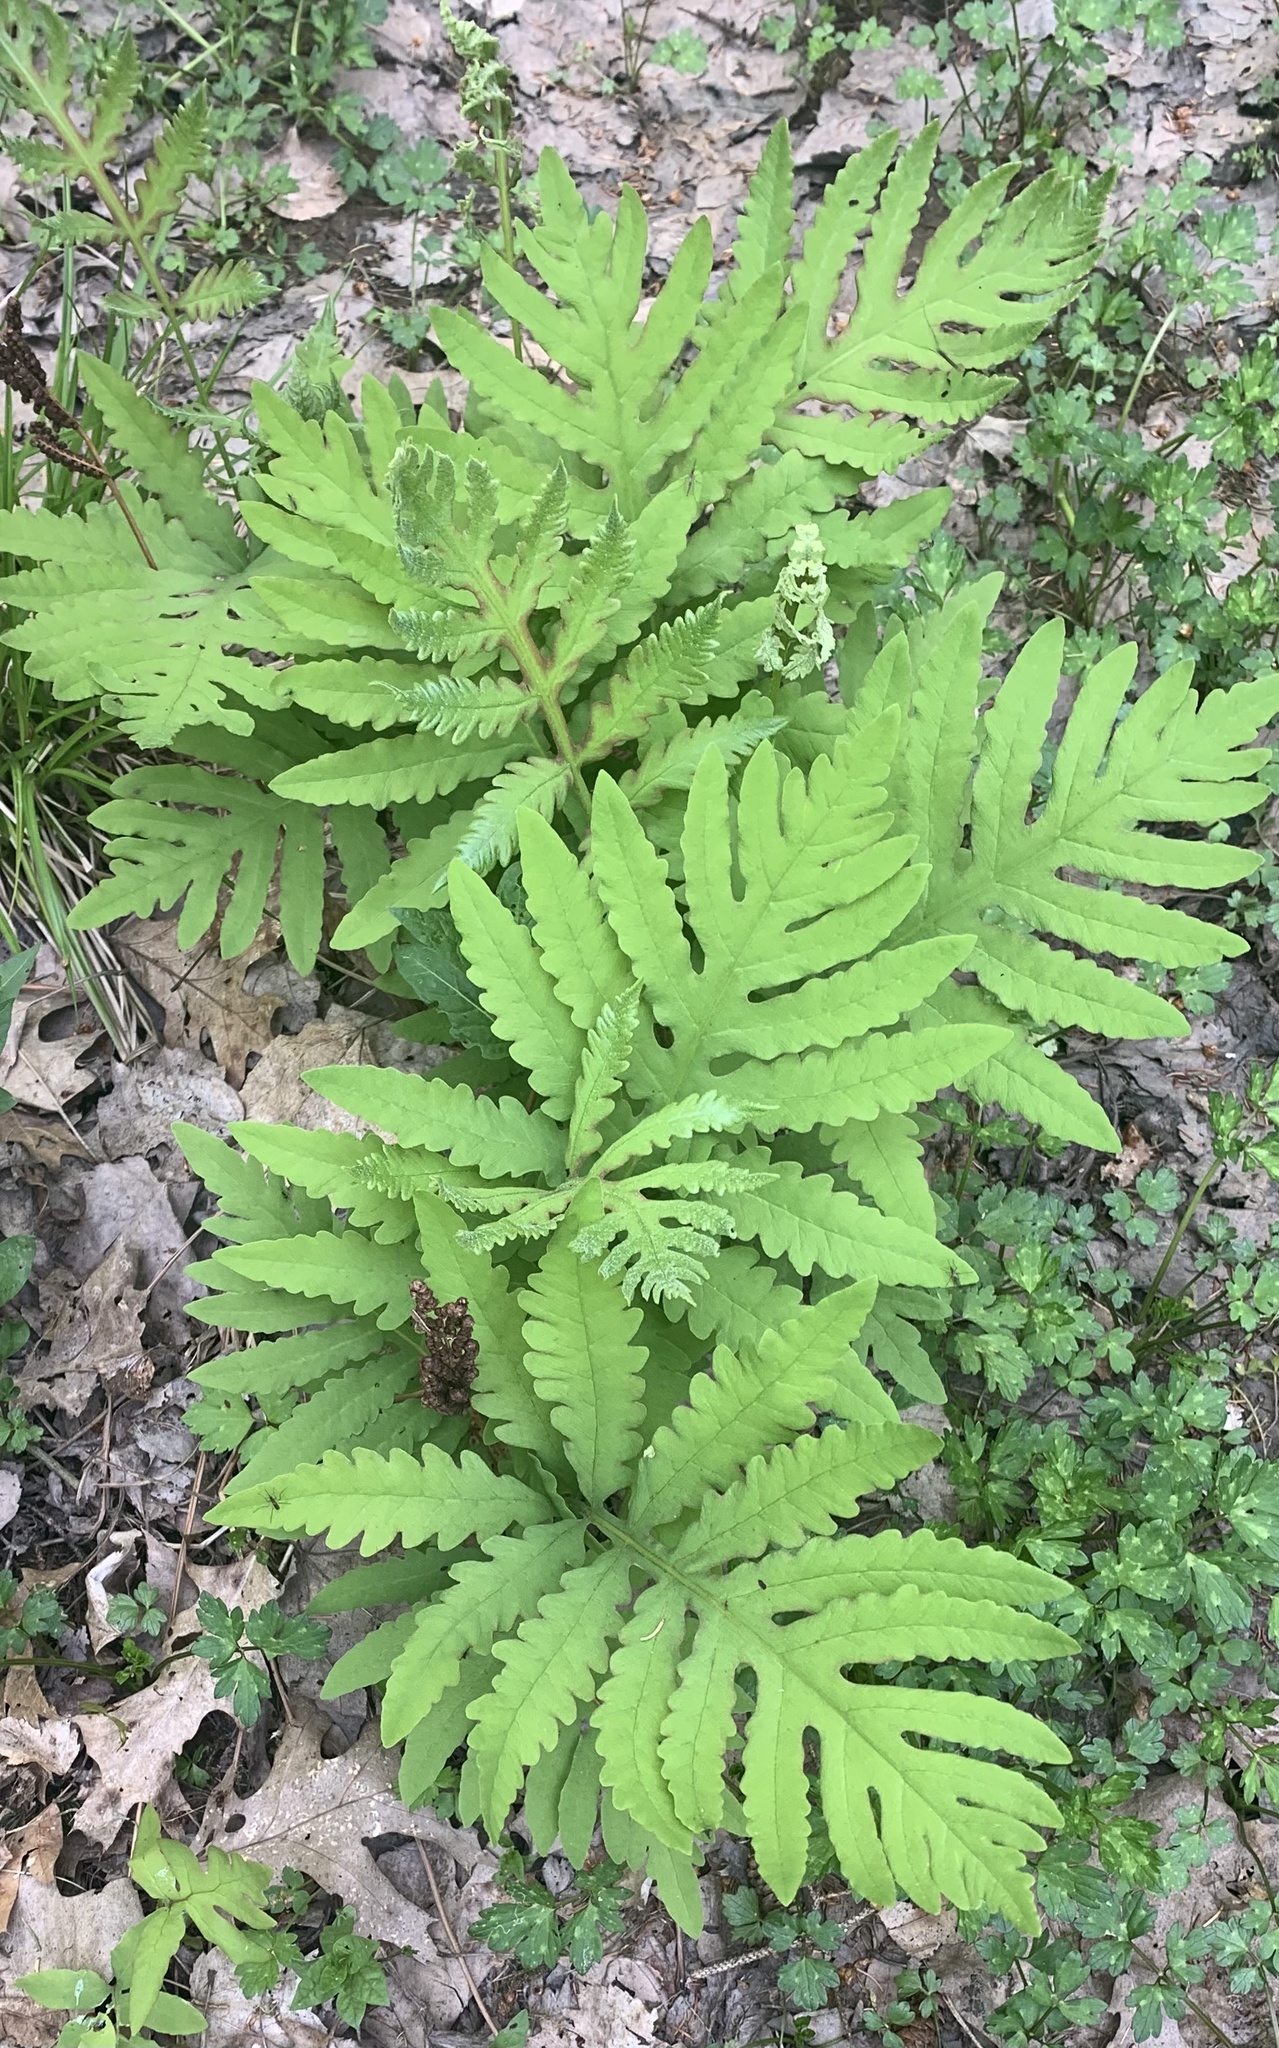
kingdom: Plantae
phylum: Tracheophyta
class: Polypodiopsida
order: Polypodiales
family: Onocleaceae
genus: Onoclea
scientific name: Onoclea sensibilis
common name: Sensitive fern
